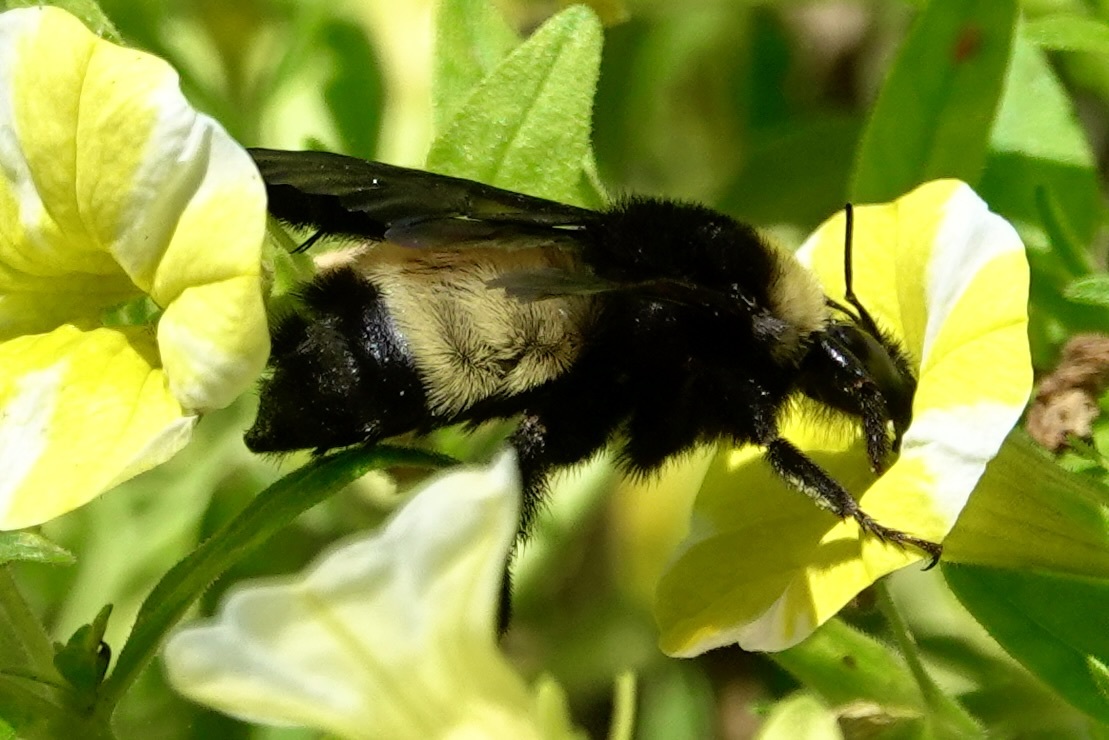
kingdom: Animalia
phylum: Arthropoda
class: Insecta
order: Hymenoptera
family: Apidae
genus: Bombus
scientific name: Bombus pensylvanicus
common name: Bumble bee
